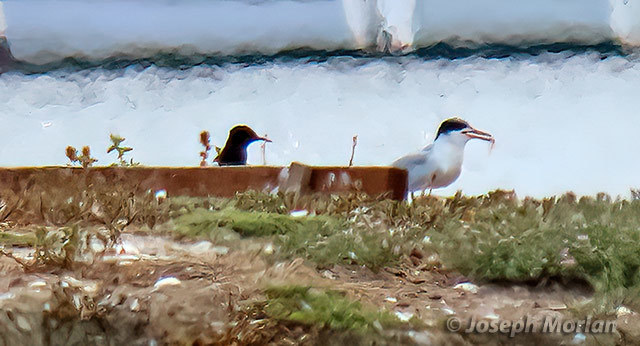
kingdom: Animalia
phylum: Chordata
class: Aves
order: Charadriiformes
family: Laridae
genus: Chlidonias
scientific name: Chlidonias niger
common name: Black tern
